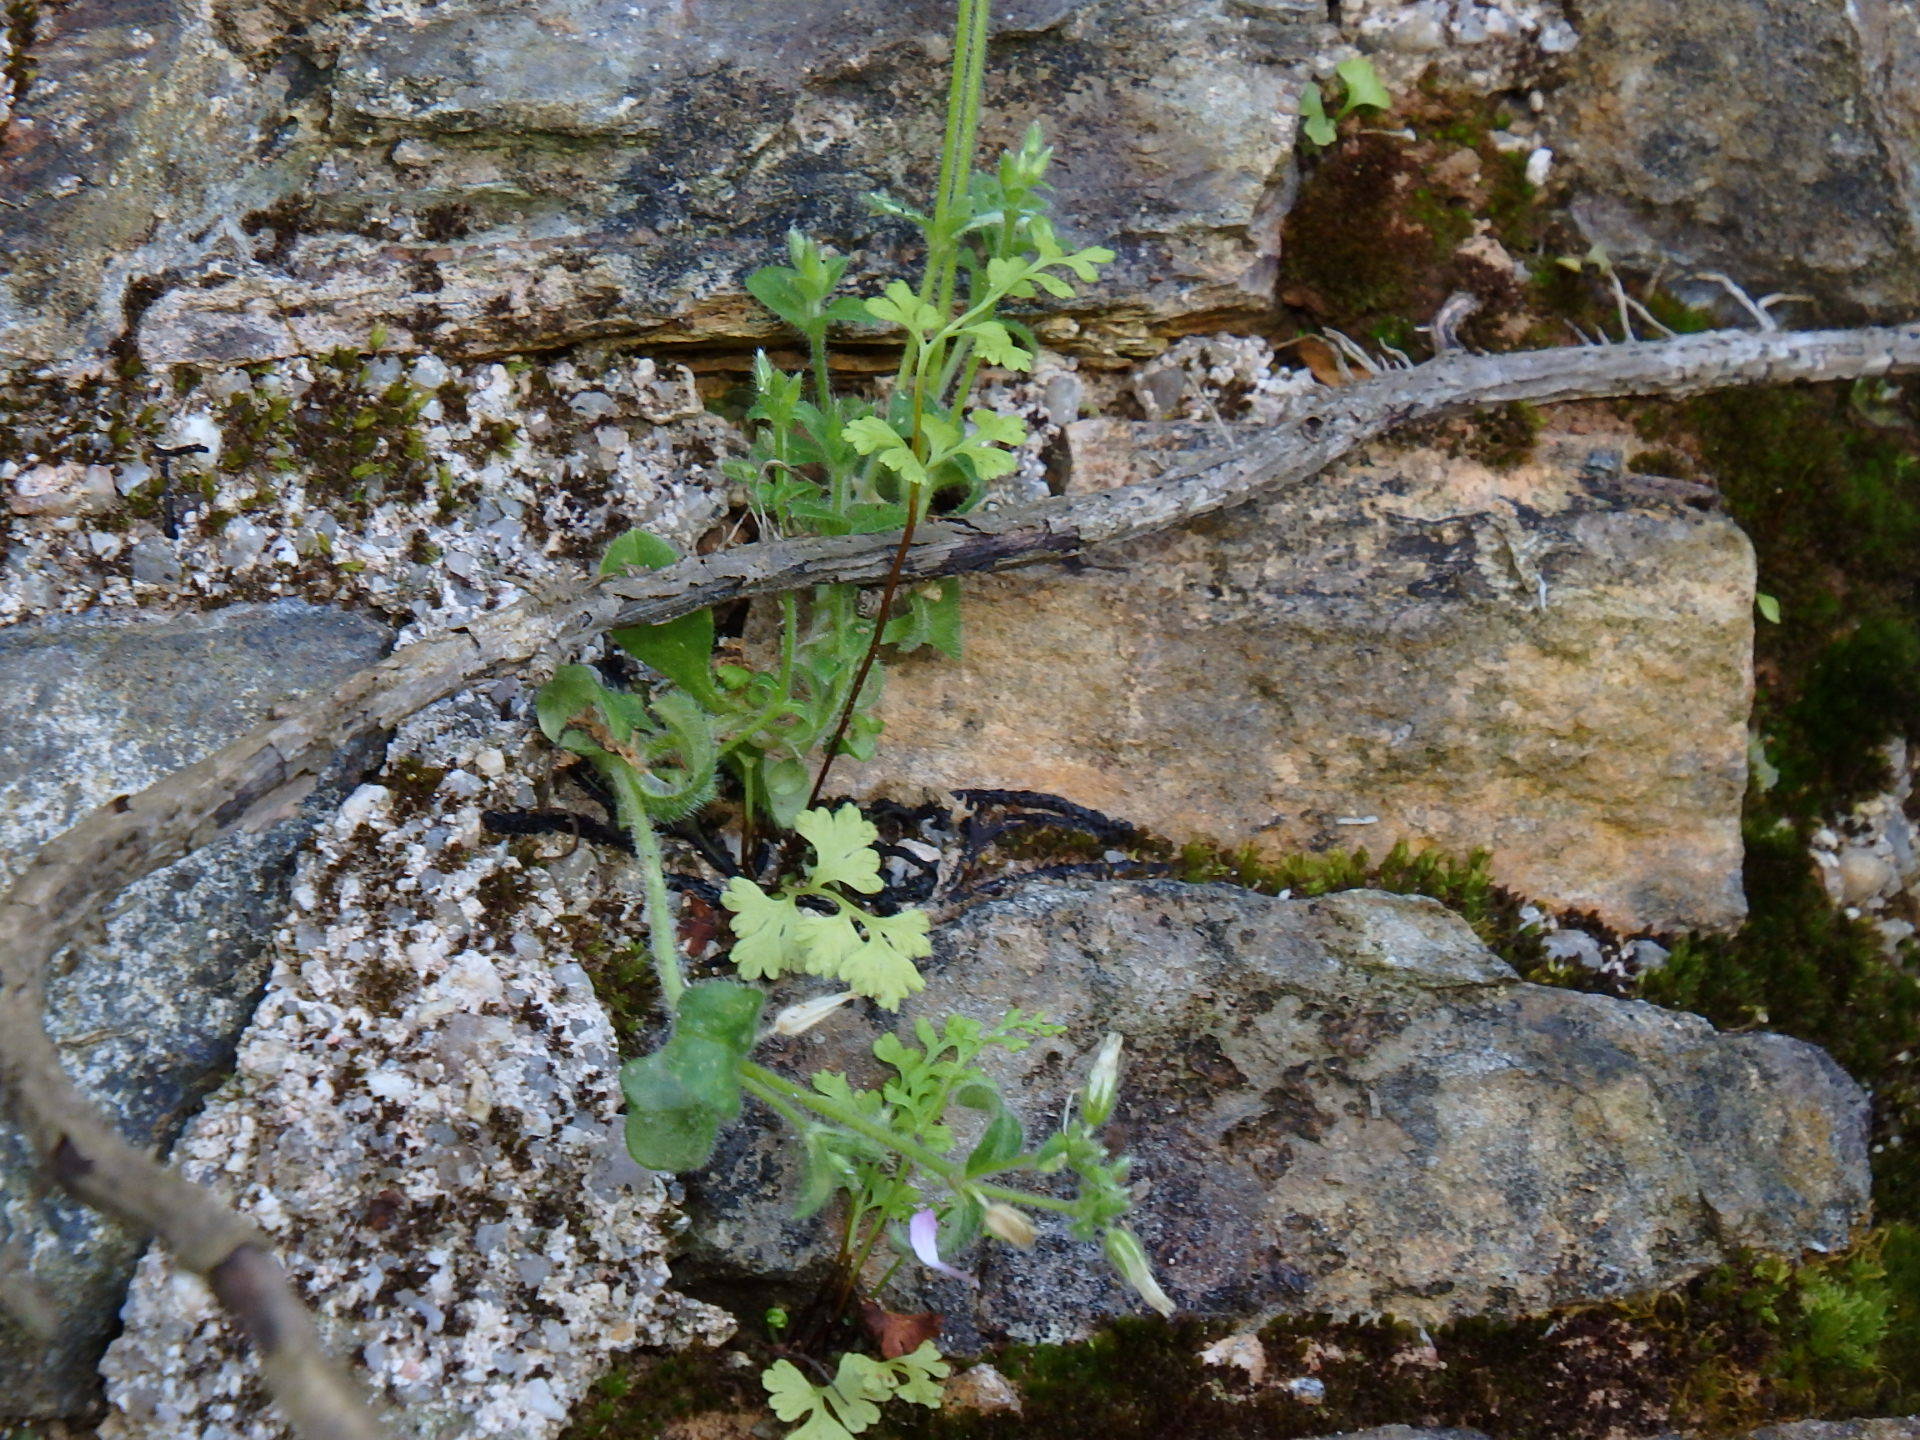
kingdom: Plantae
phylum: Tracheophyta
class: Polypodiopsida
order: Polypodiales
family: Pteridaceae
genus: Anogramma
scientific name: Anogramma leptophylla
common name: Jersey fern
